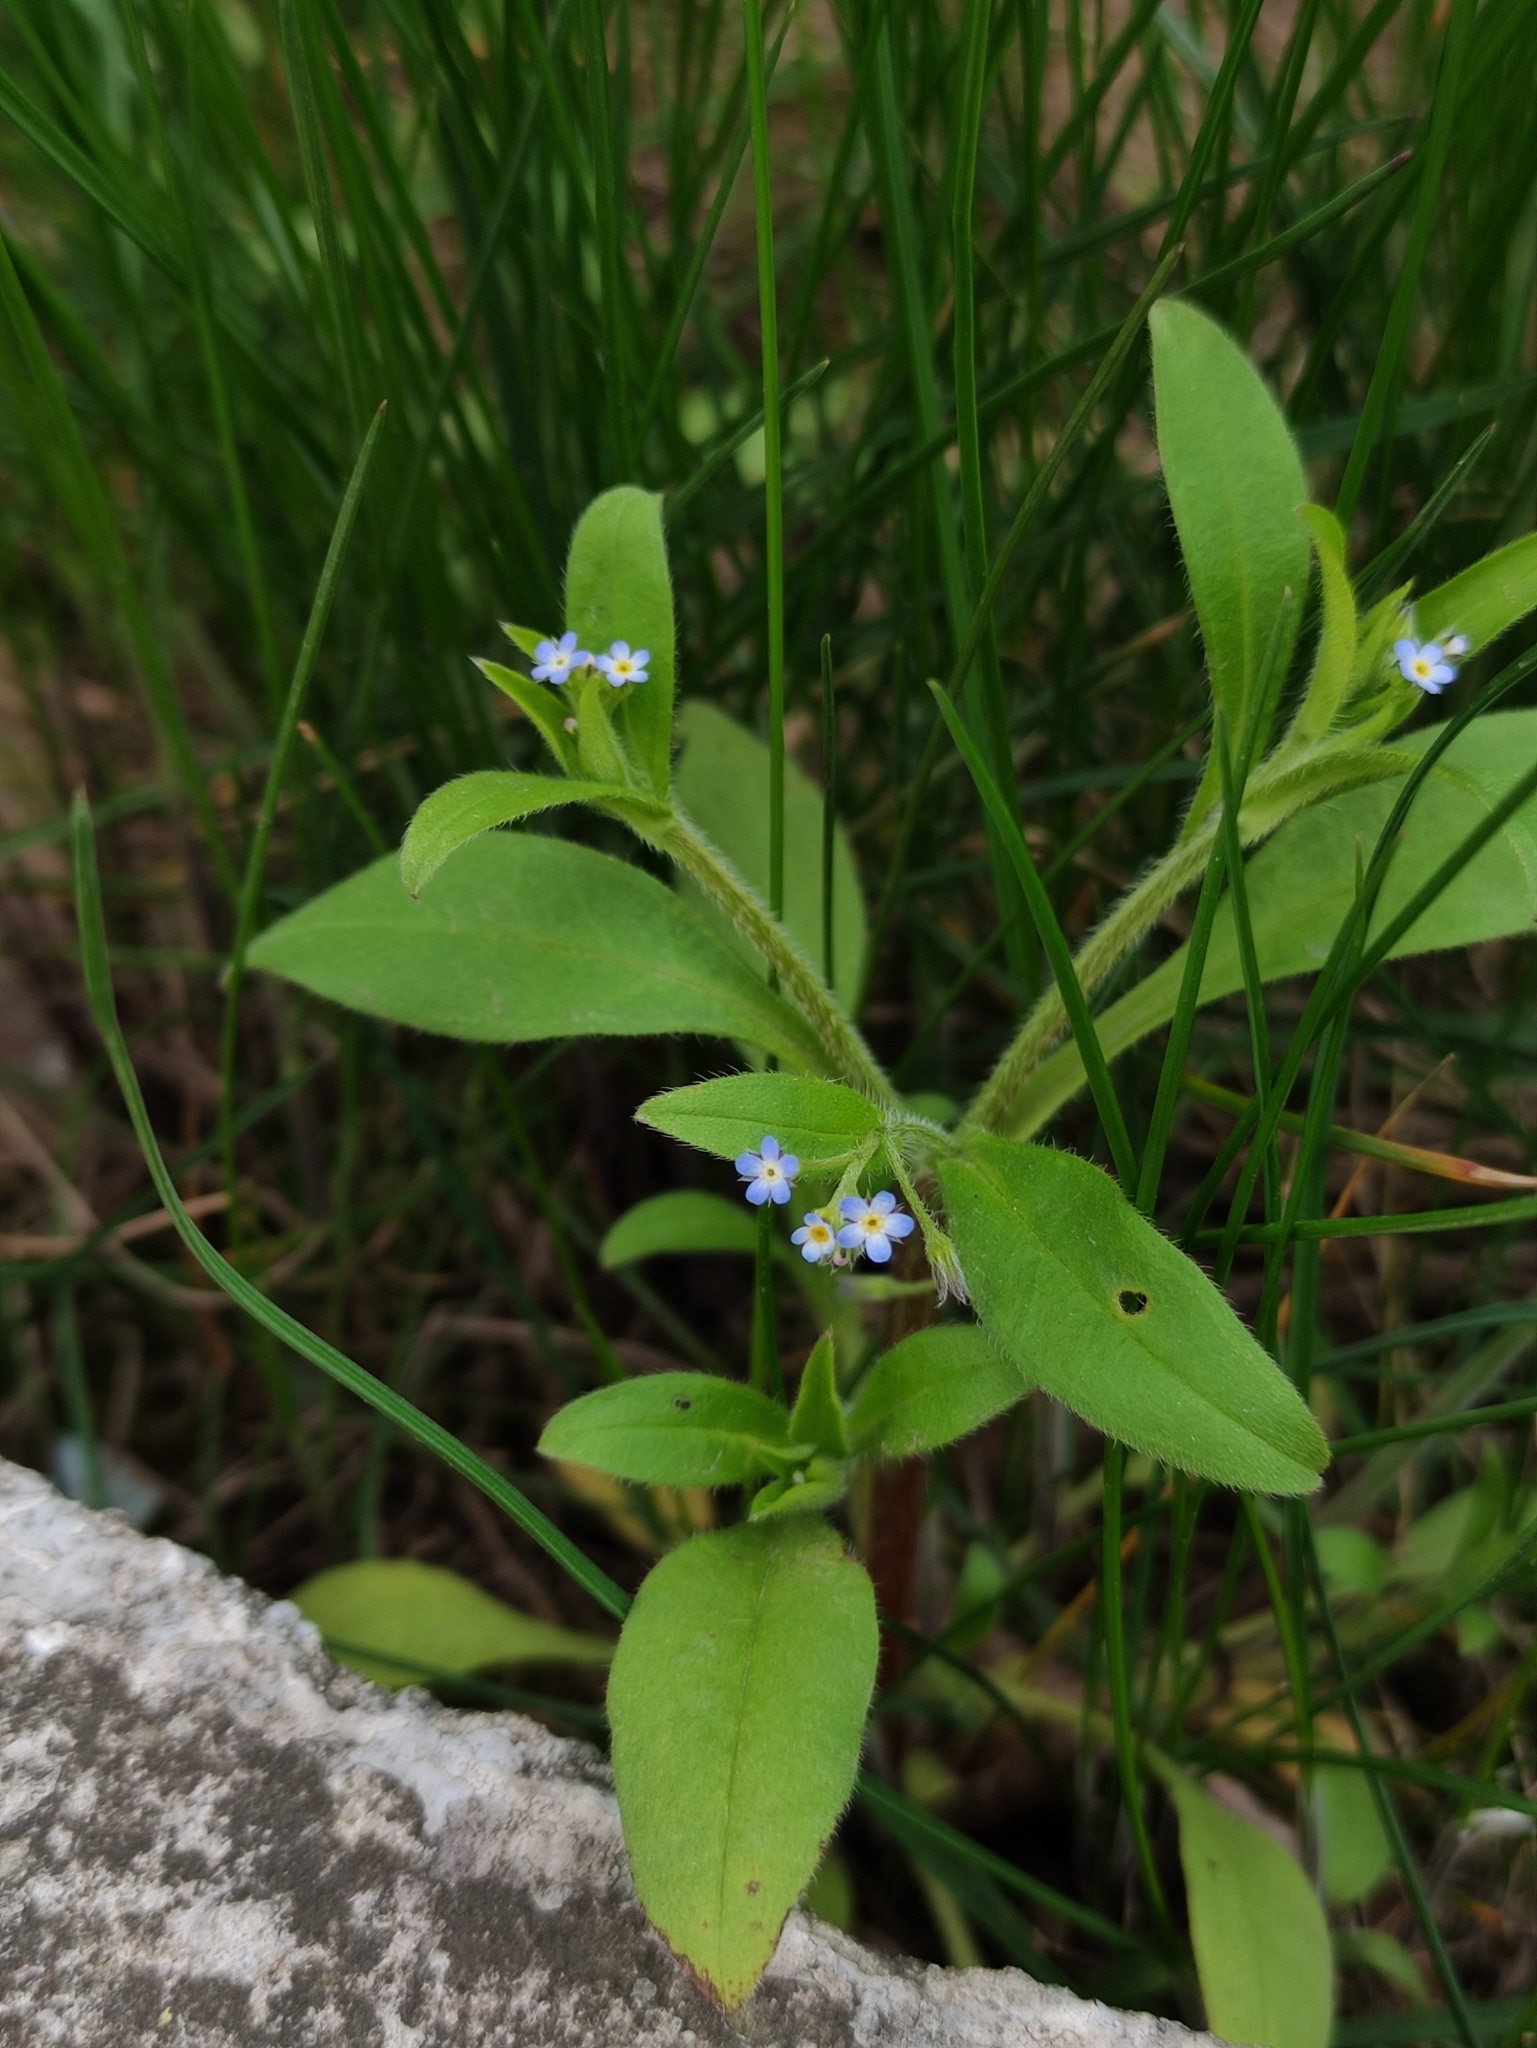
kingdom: Plantae
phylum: Tracheophyta
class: Magnoliopsida
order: Boraginales
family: Boraginaceae
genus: Myosotis
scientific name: Myosotis sparsiflora
